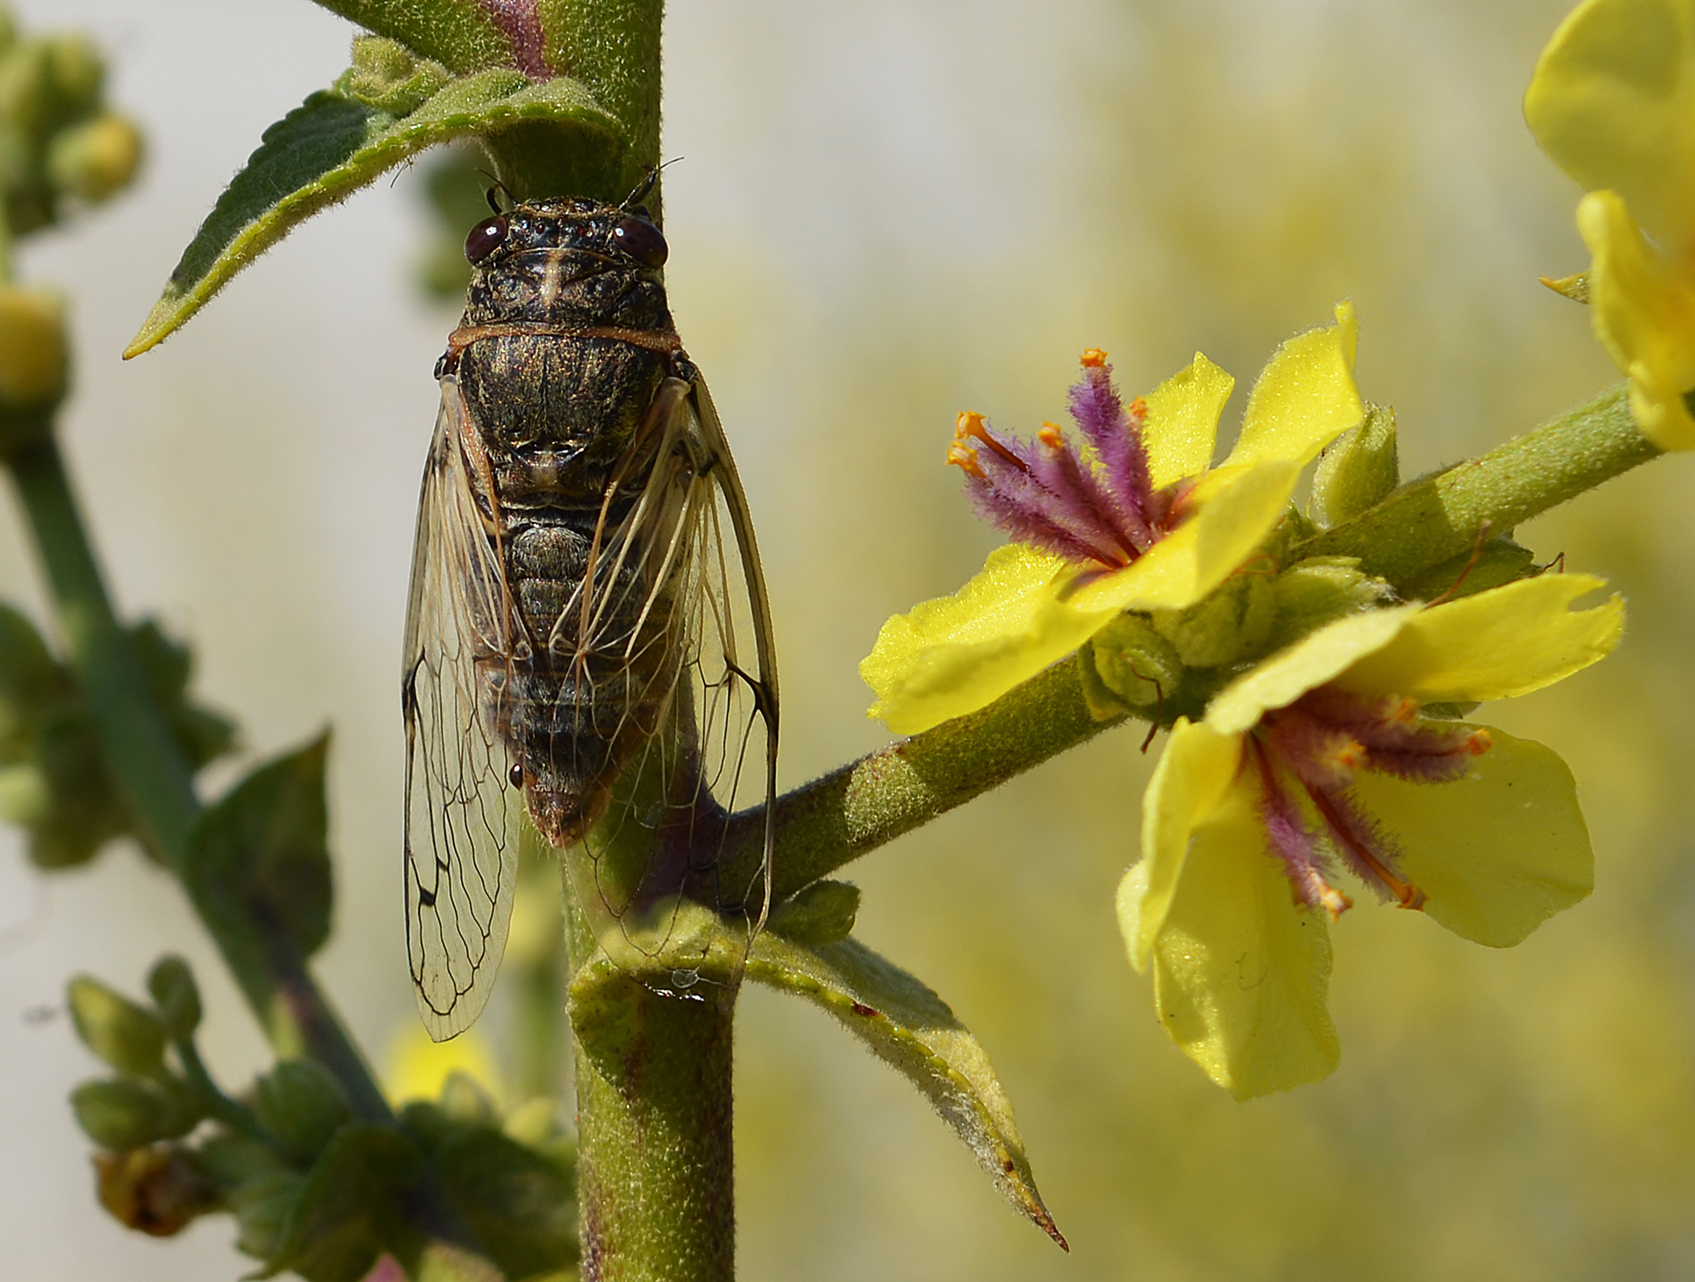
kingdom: Animalia
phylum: Arthropoda
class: Insecta
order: Hemiptera
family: Cicadidae
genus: Cicadatra
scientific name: Cicadatra atra
